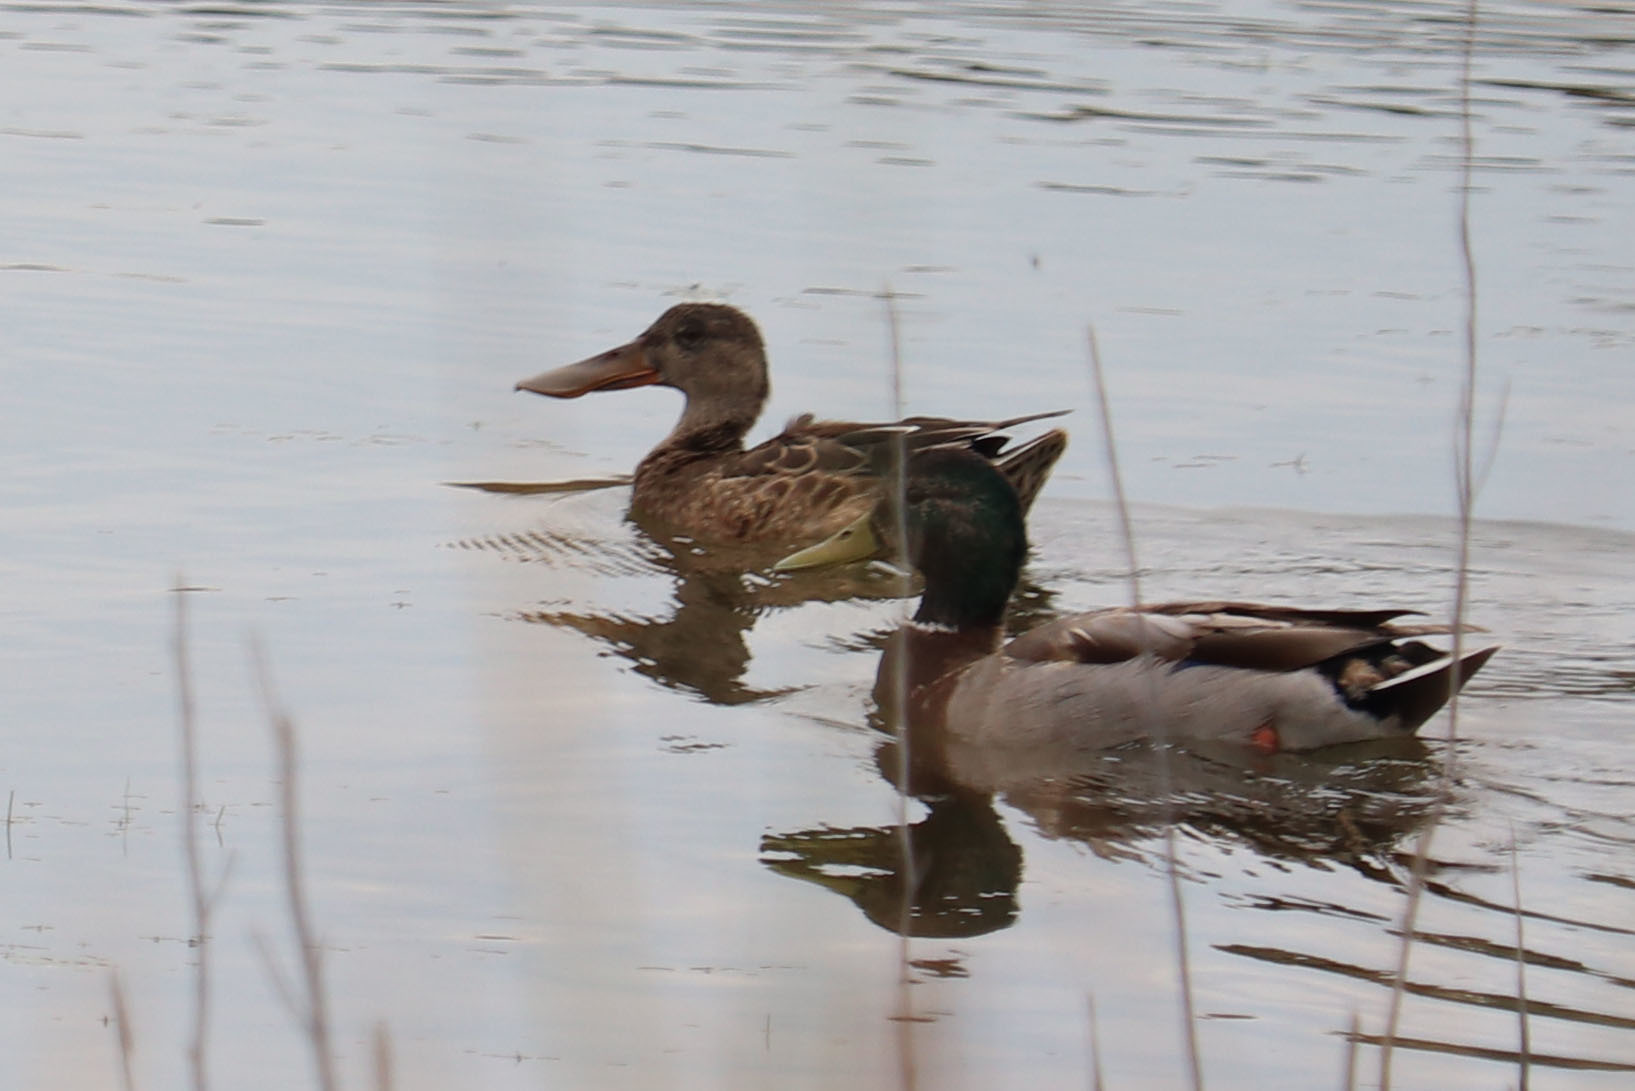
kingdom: Animalia
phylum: Chordata
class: Aves
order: Anseriformes
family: Anatidae
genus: Spatula
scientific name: Spatula clypeata
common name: Northern shoveler
